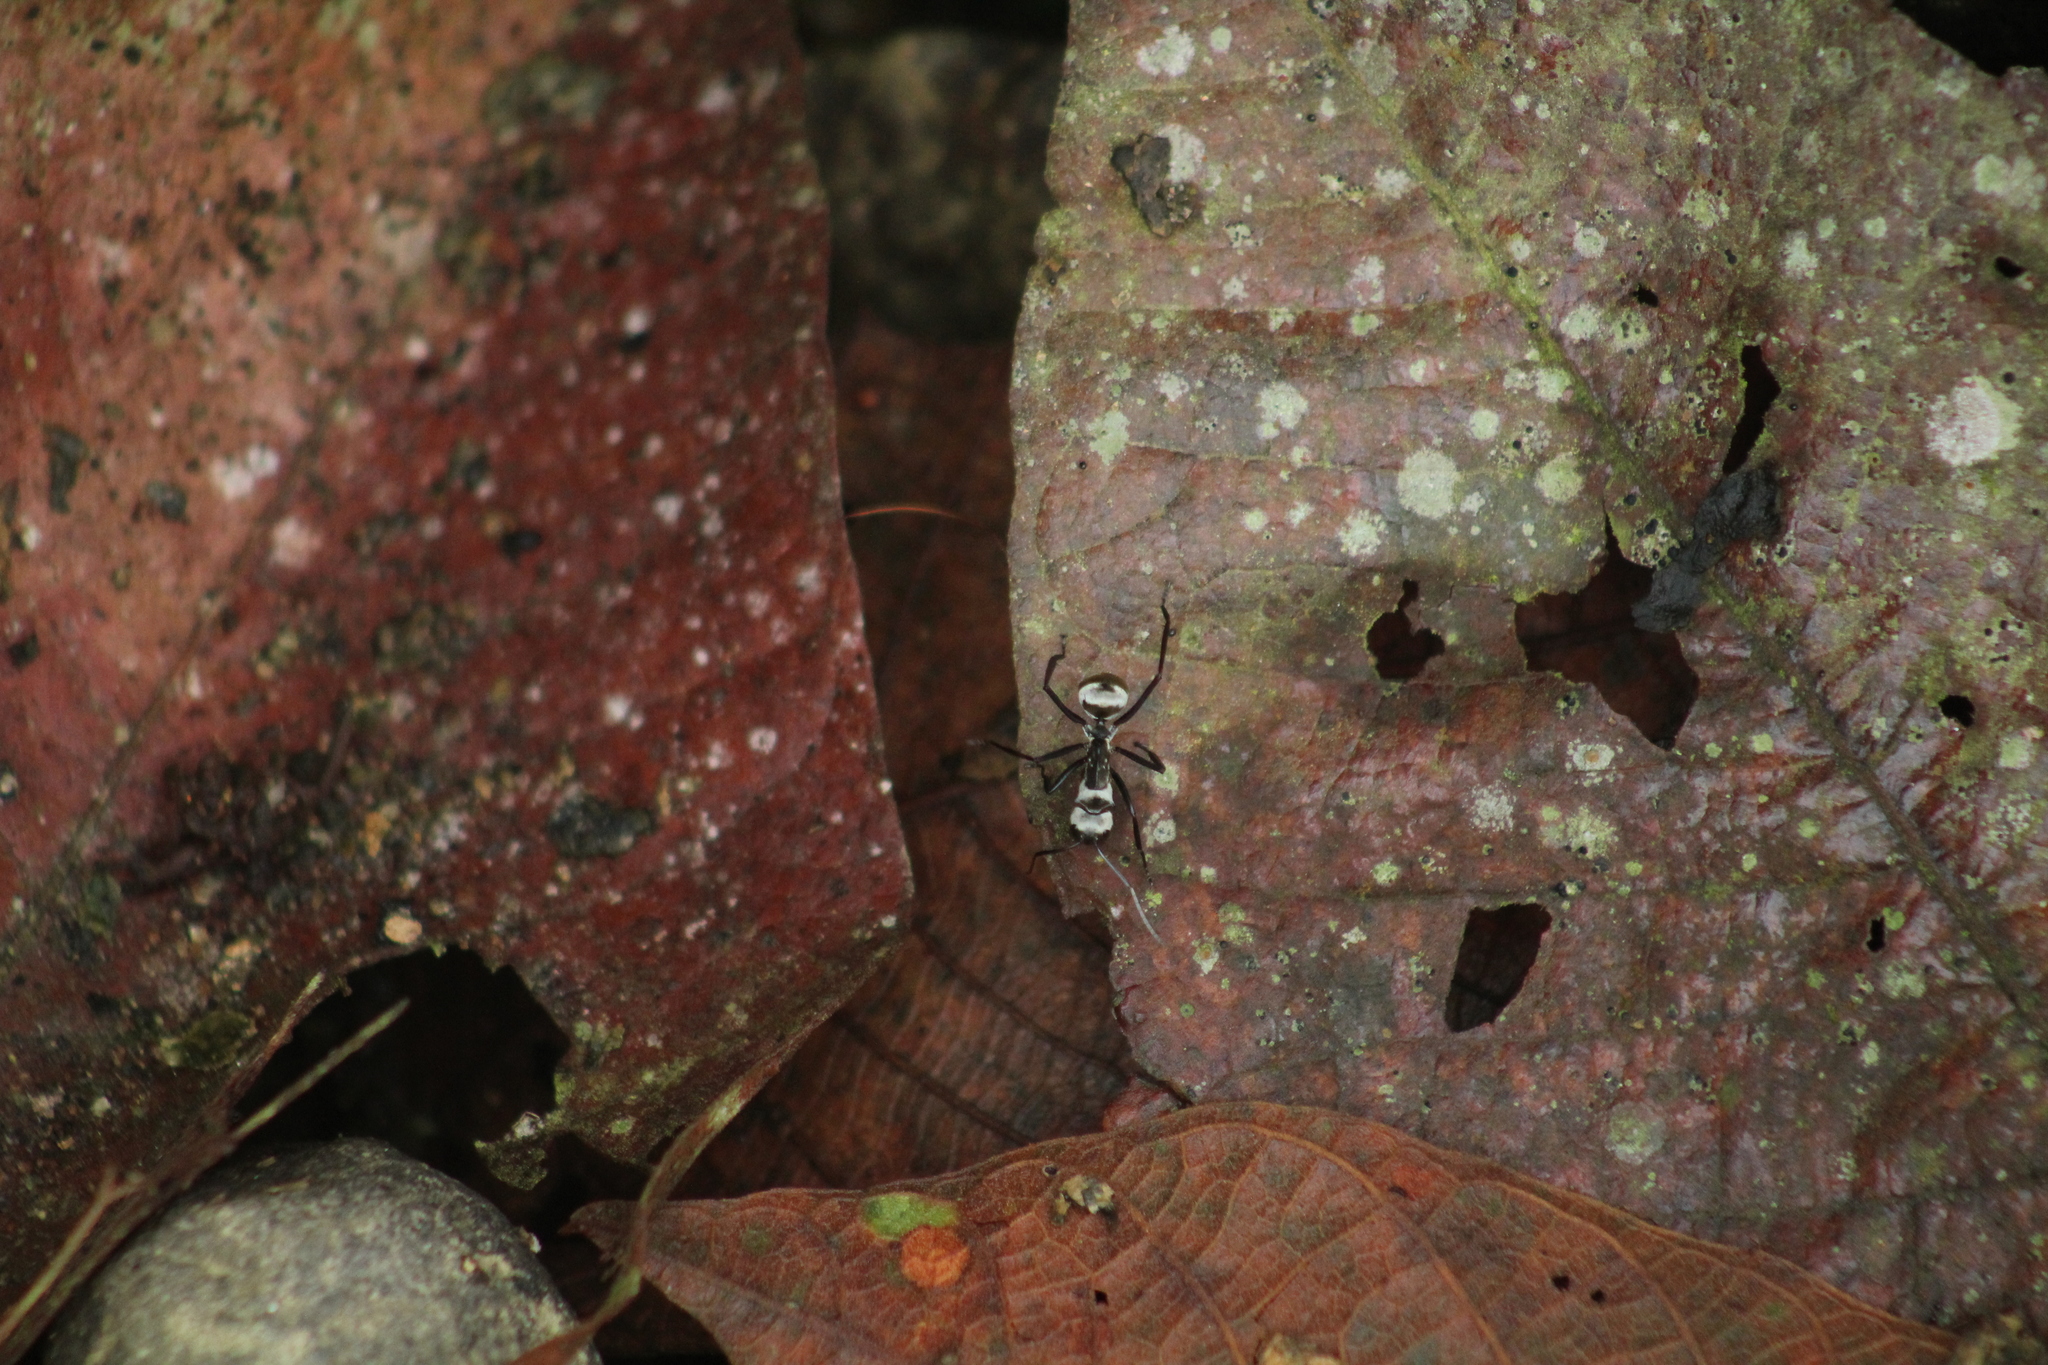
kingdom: Animalia
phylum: Arthropoda
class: Insecta
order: Hymenoptera
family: Formicidae
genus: Camponotus
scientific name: Camponotus sericeiventris
